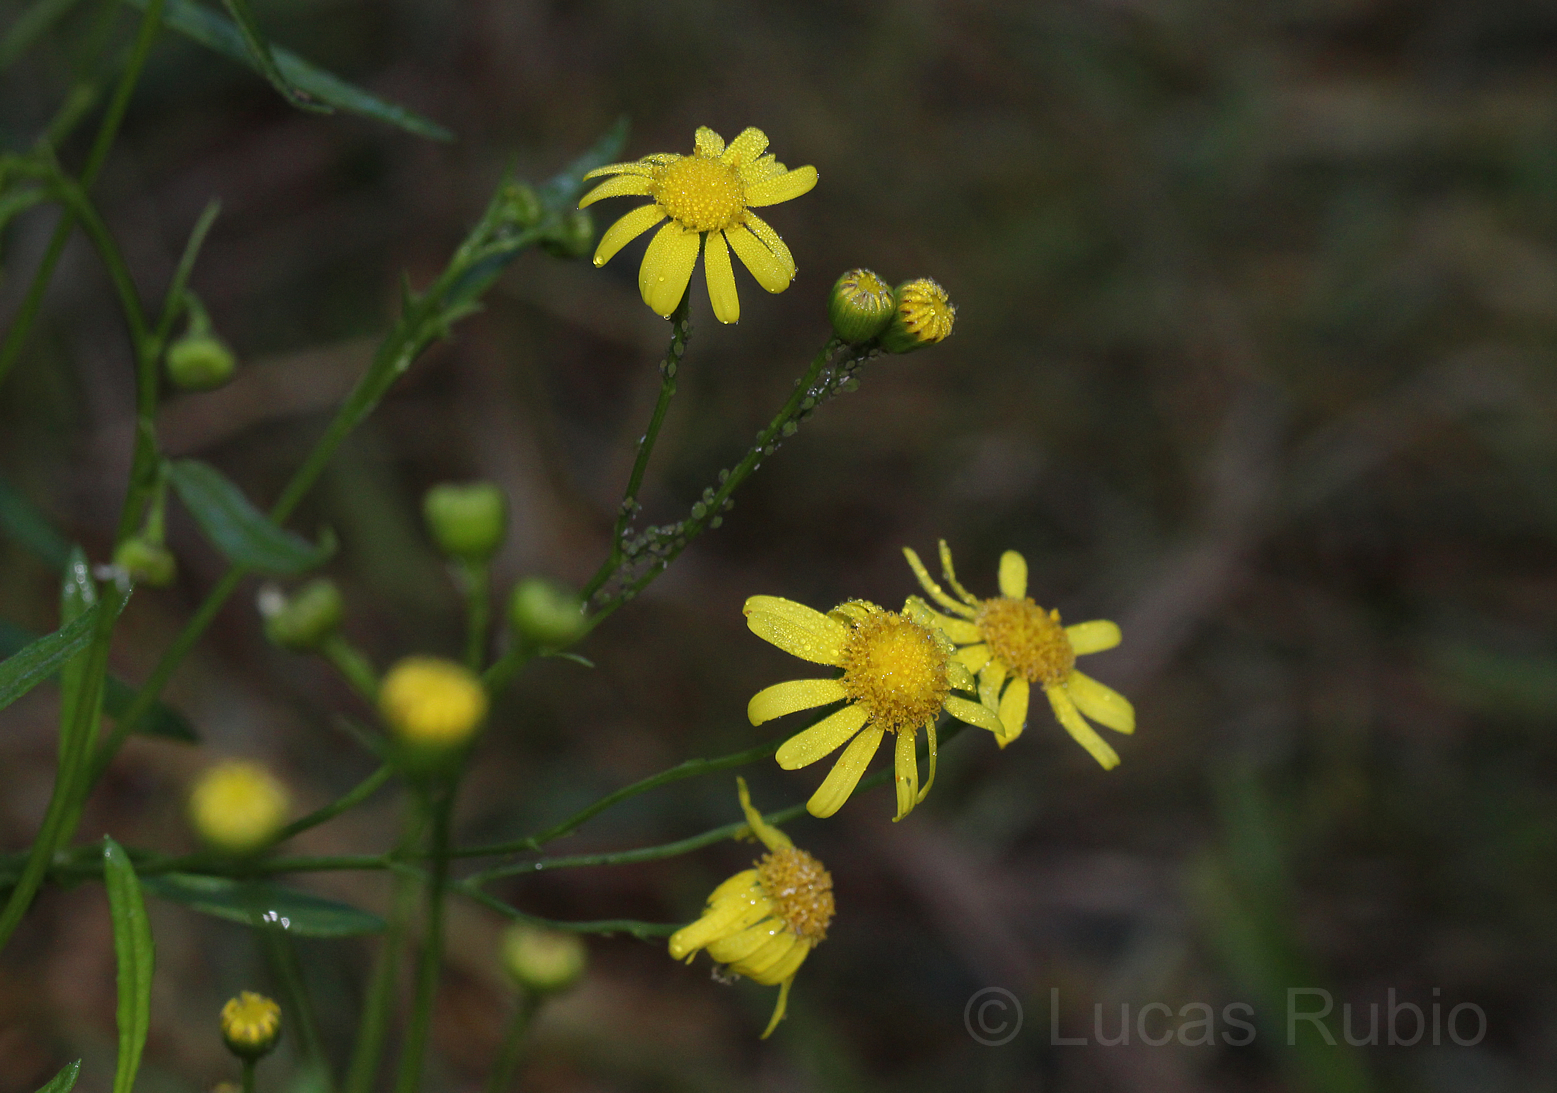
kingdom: Plantae
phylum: Tracheophyta
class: Magnoliopsida
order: Asterales
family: Asteraceae
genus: Senecio
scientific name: Senecio madagascariensis
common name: Madagascar ragwort
